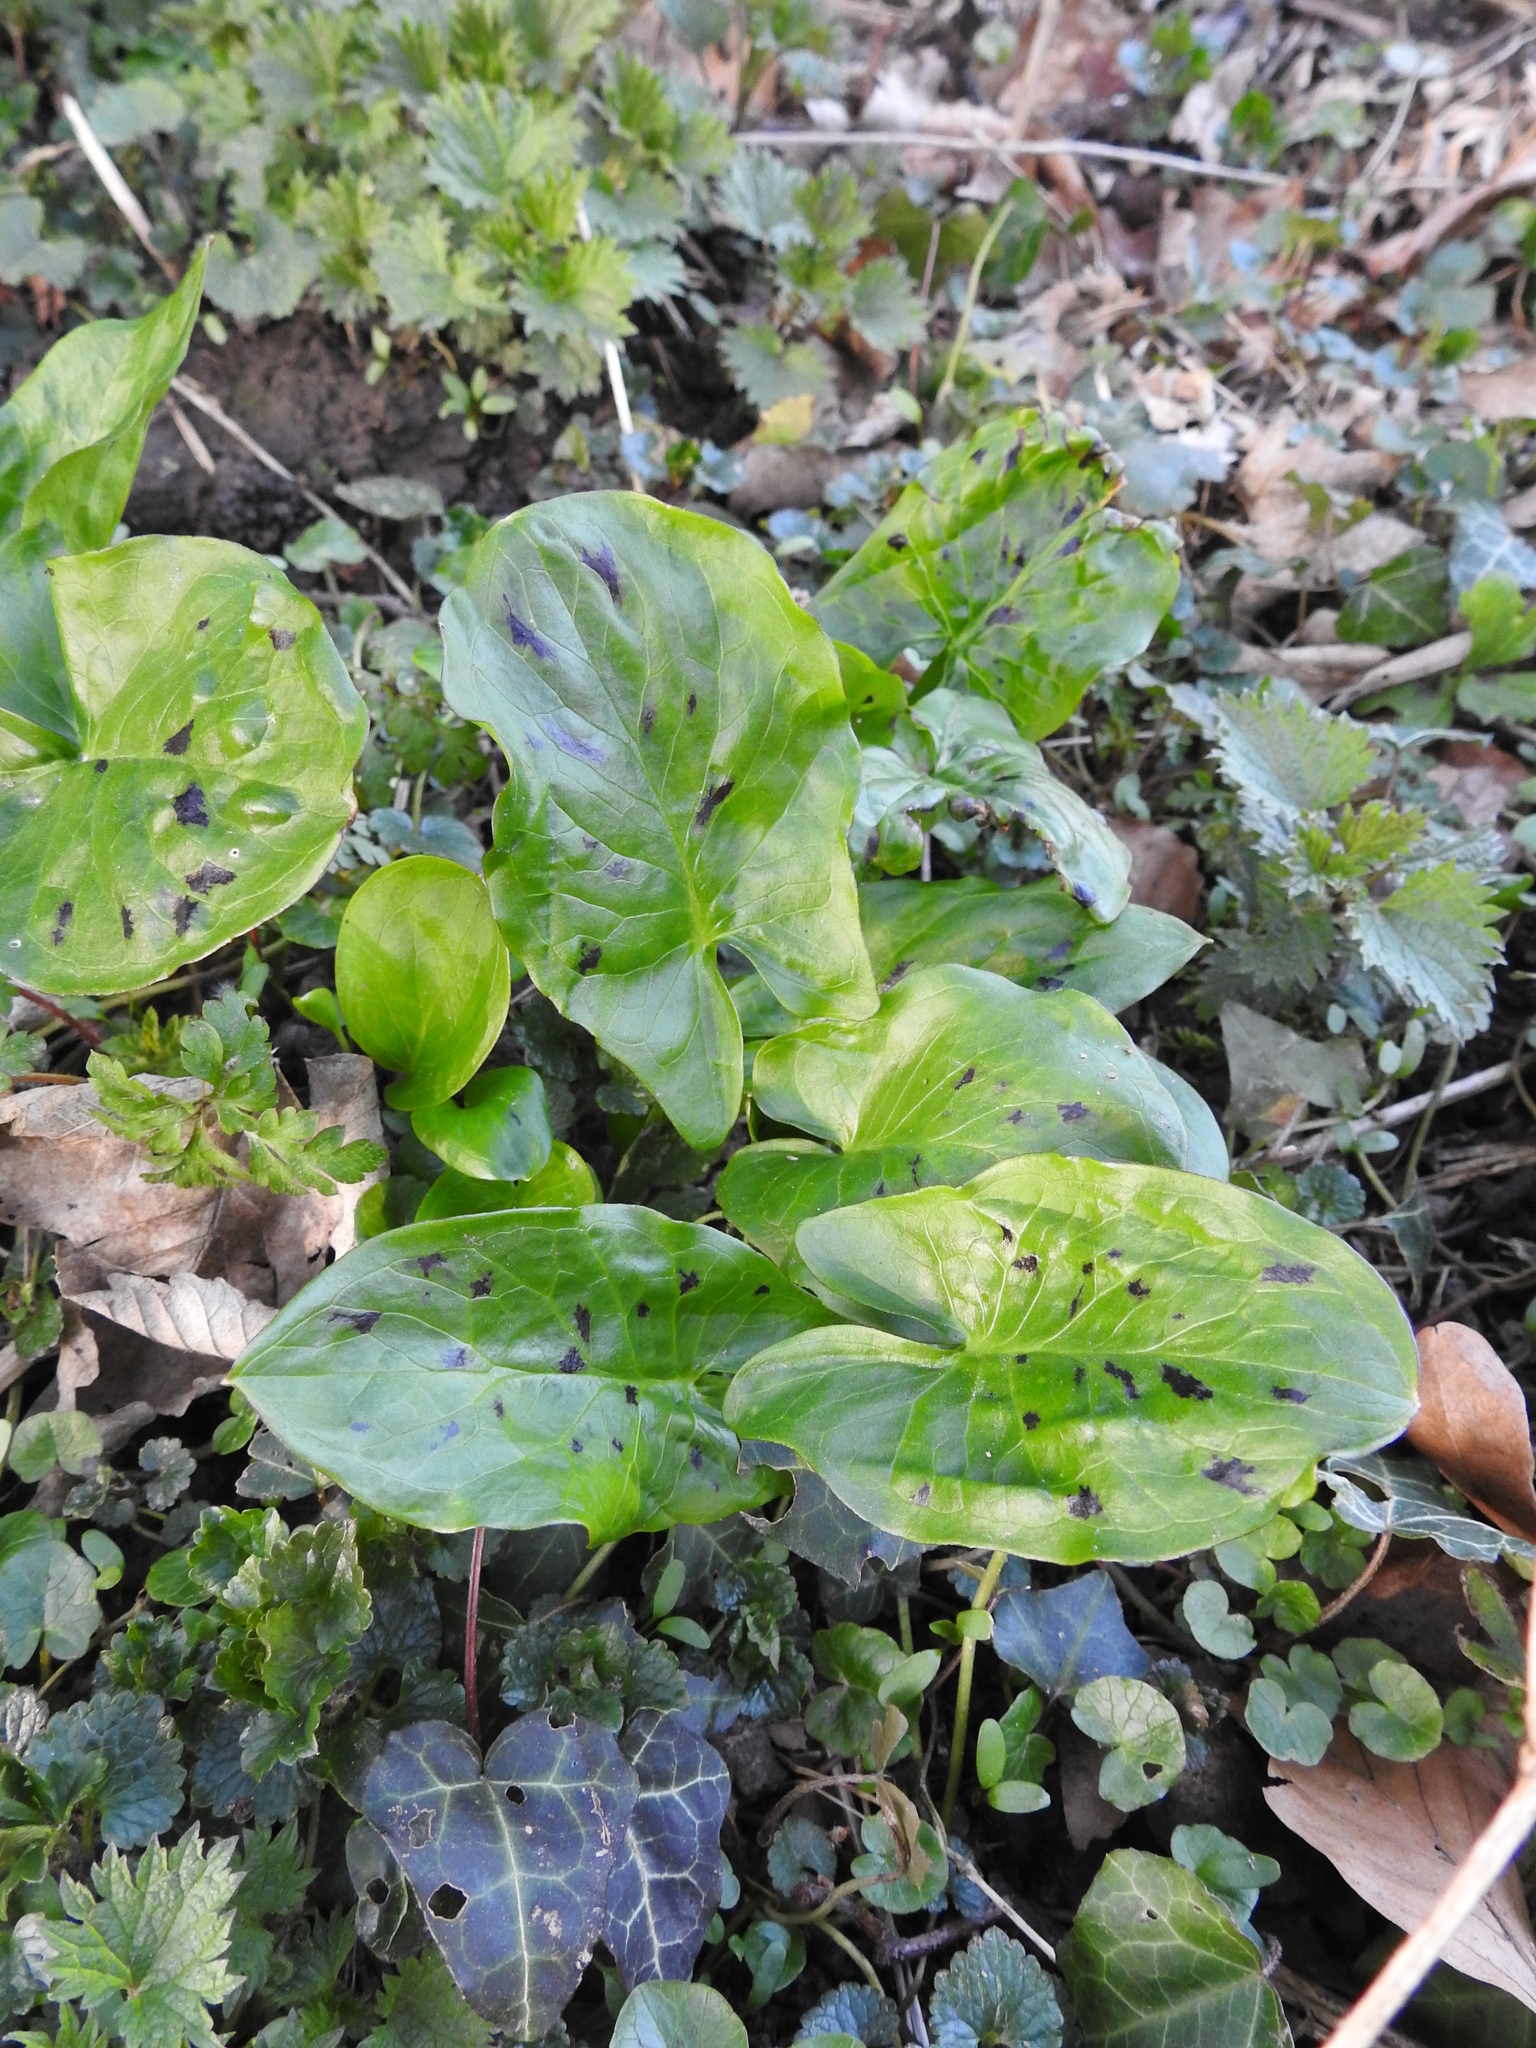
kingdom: Plantae
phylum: Tracheophyta
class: Liliopsida
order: Alismatales
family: Araceae
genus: Arum
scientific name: Arum maculatum
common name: Lords-and-ladies
